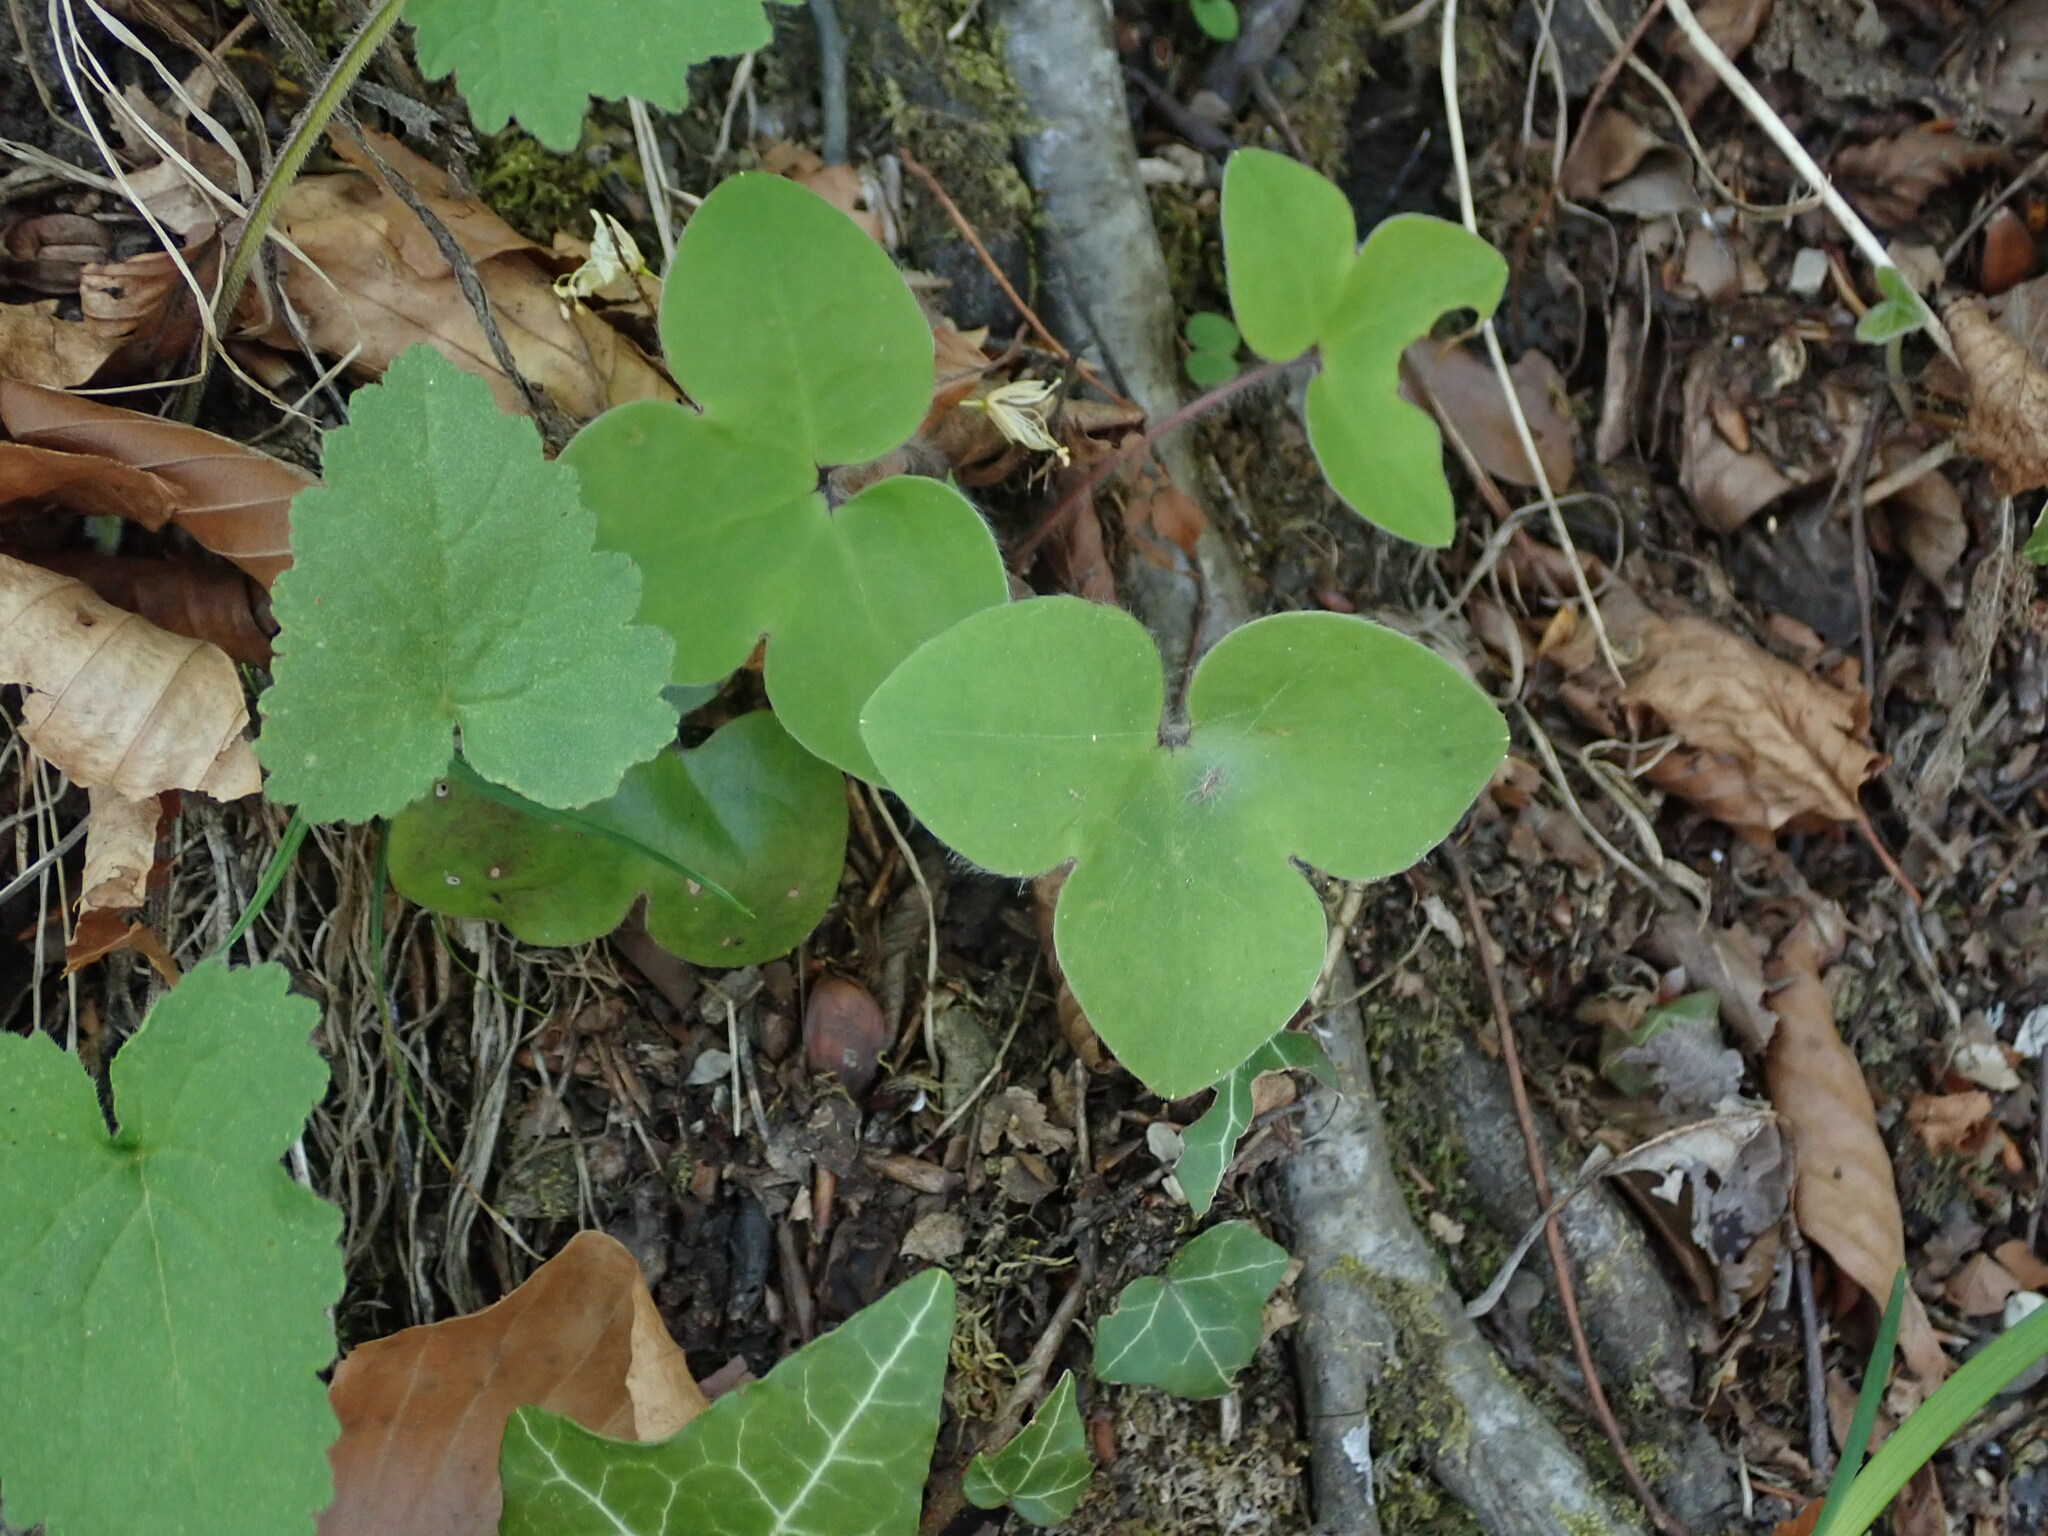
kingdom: Plantae
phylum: Tracheophyta
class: Magnoliopsida
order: Ranunculales
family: Ranunculaceae
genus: Hepatica
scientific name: Hepatica nobilis
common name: Liverleaf
